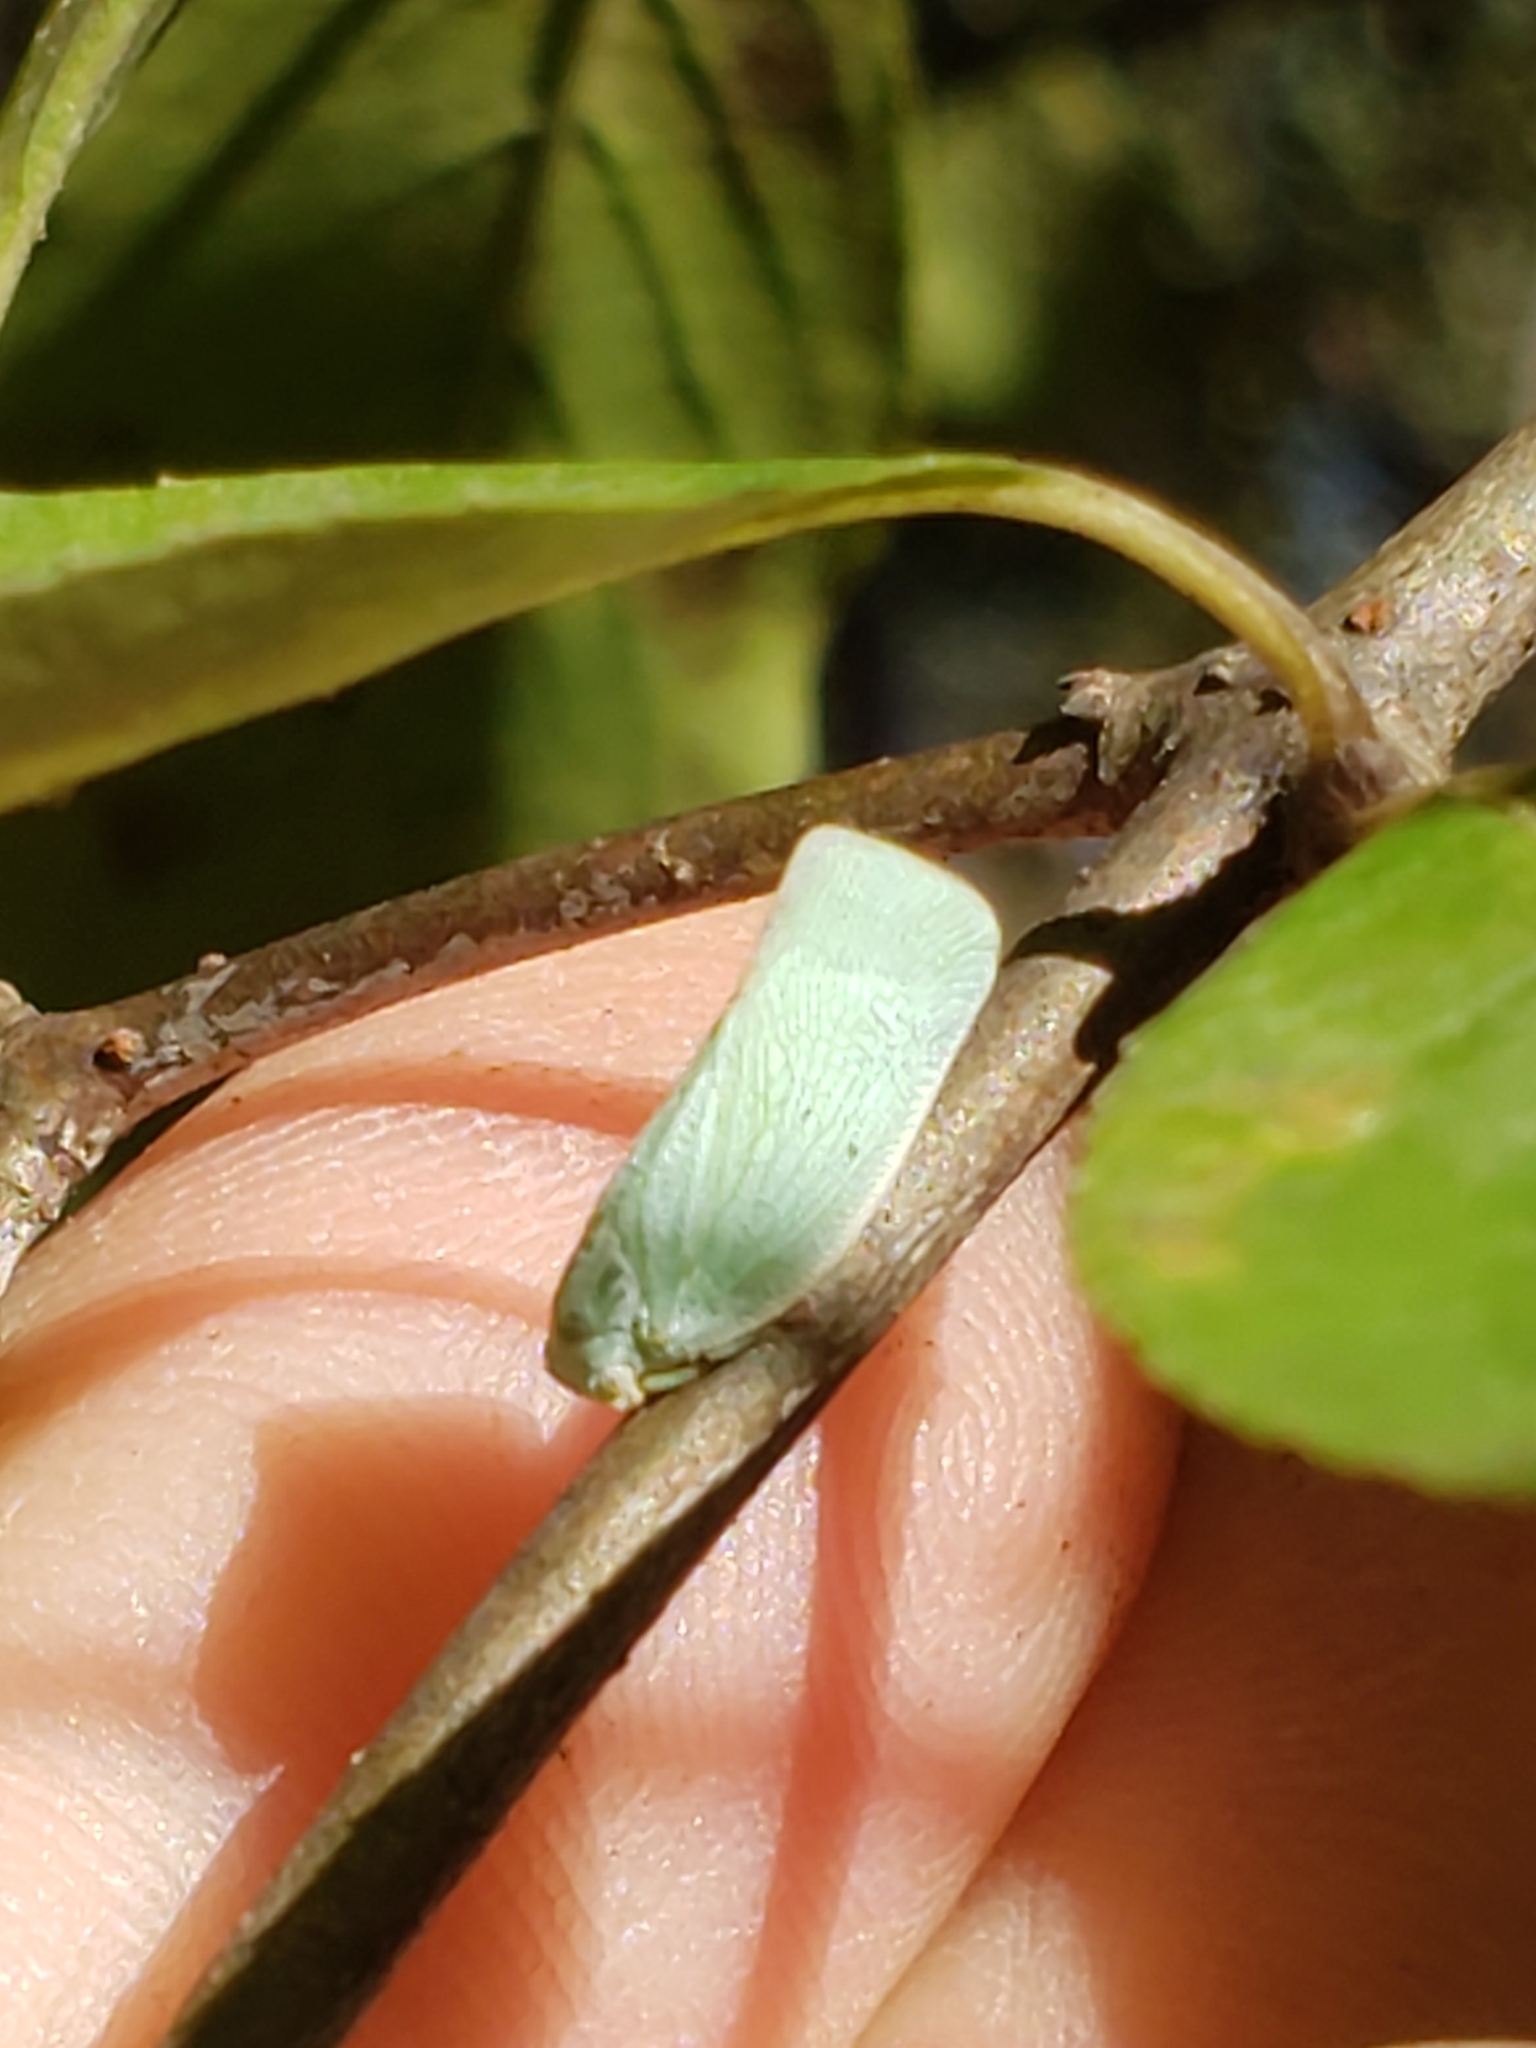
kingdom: Animalia
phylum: Arthropoda
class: Insecta
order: Hemiptera
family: Flatidae
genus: Flatormenis
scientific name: Flatormenis proxima
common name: Northern flatid planthopper
